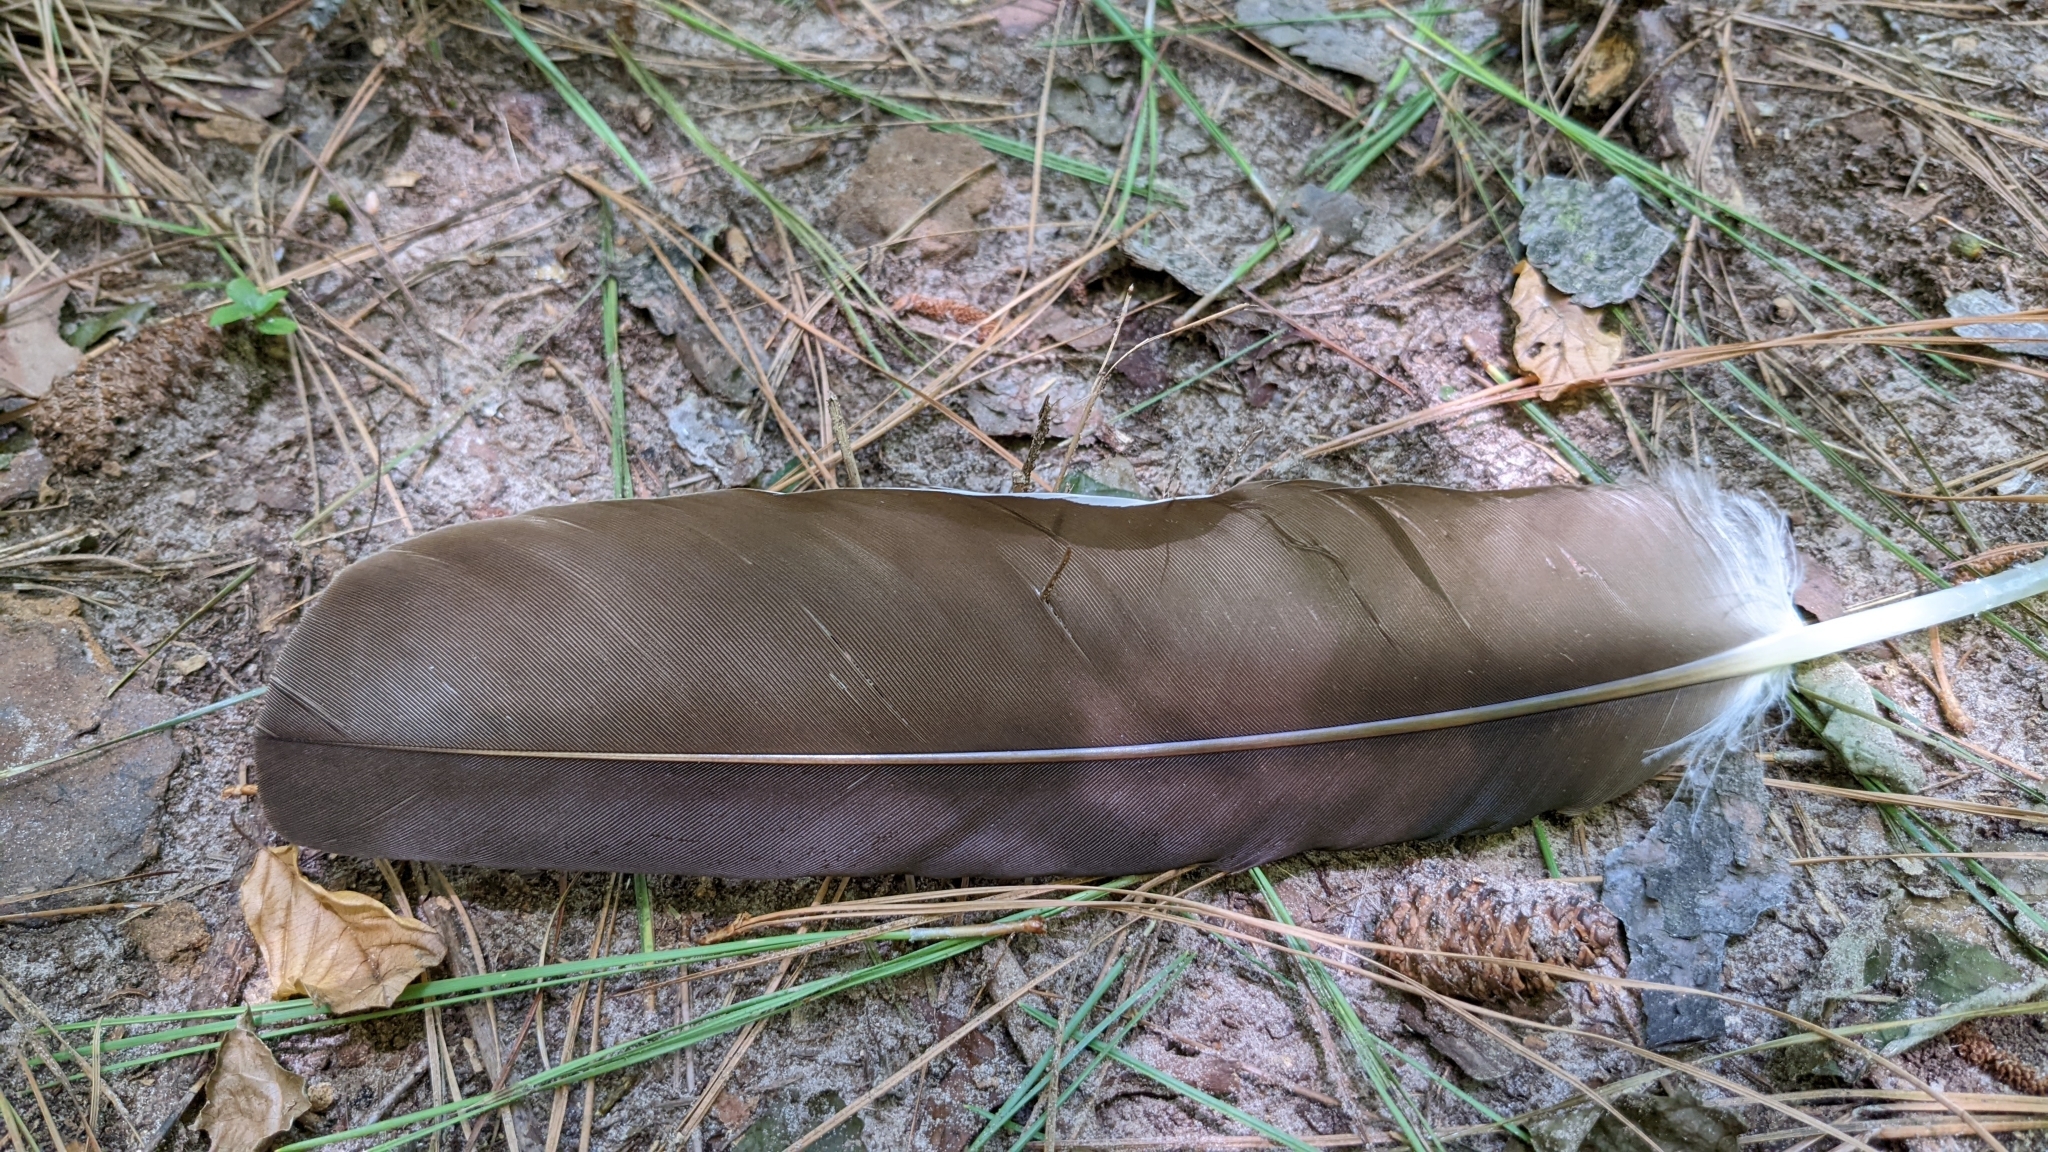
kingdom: Animalia
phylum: Chordata
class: Aves
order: Accipitriformes
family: Cathartidae
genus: Cathartes
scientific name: Cathartes aura
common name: Turkey vulture
